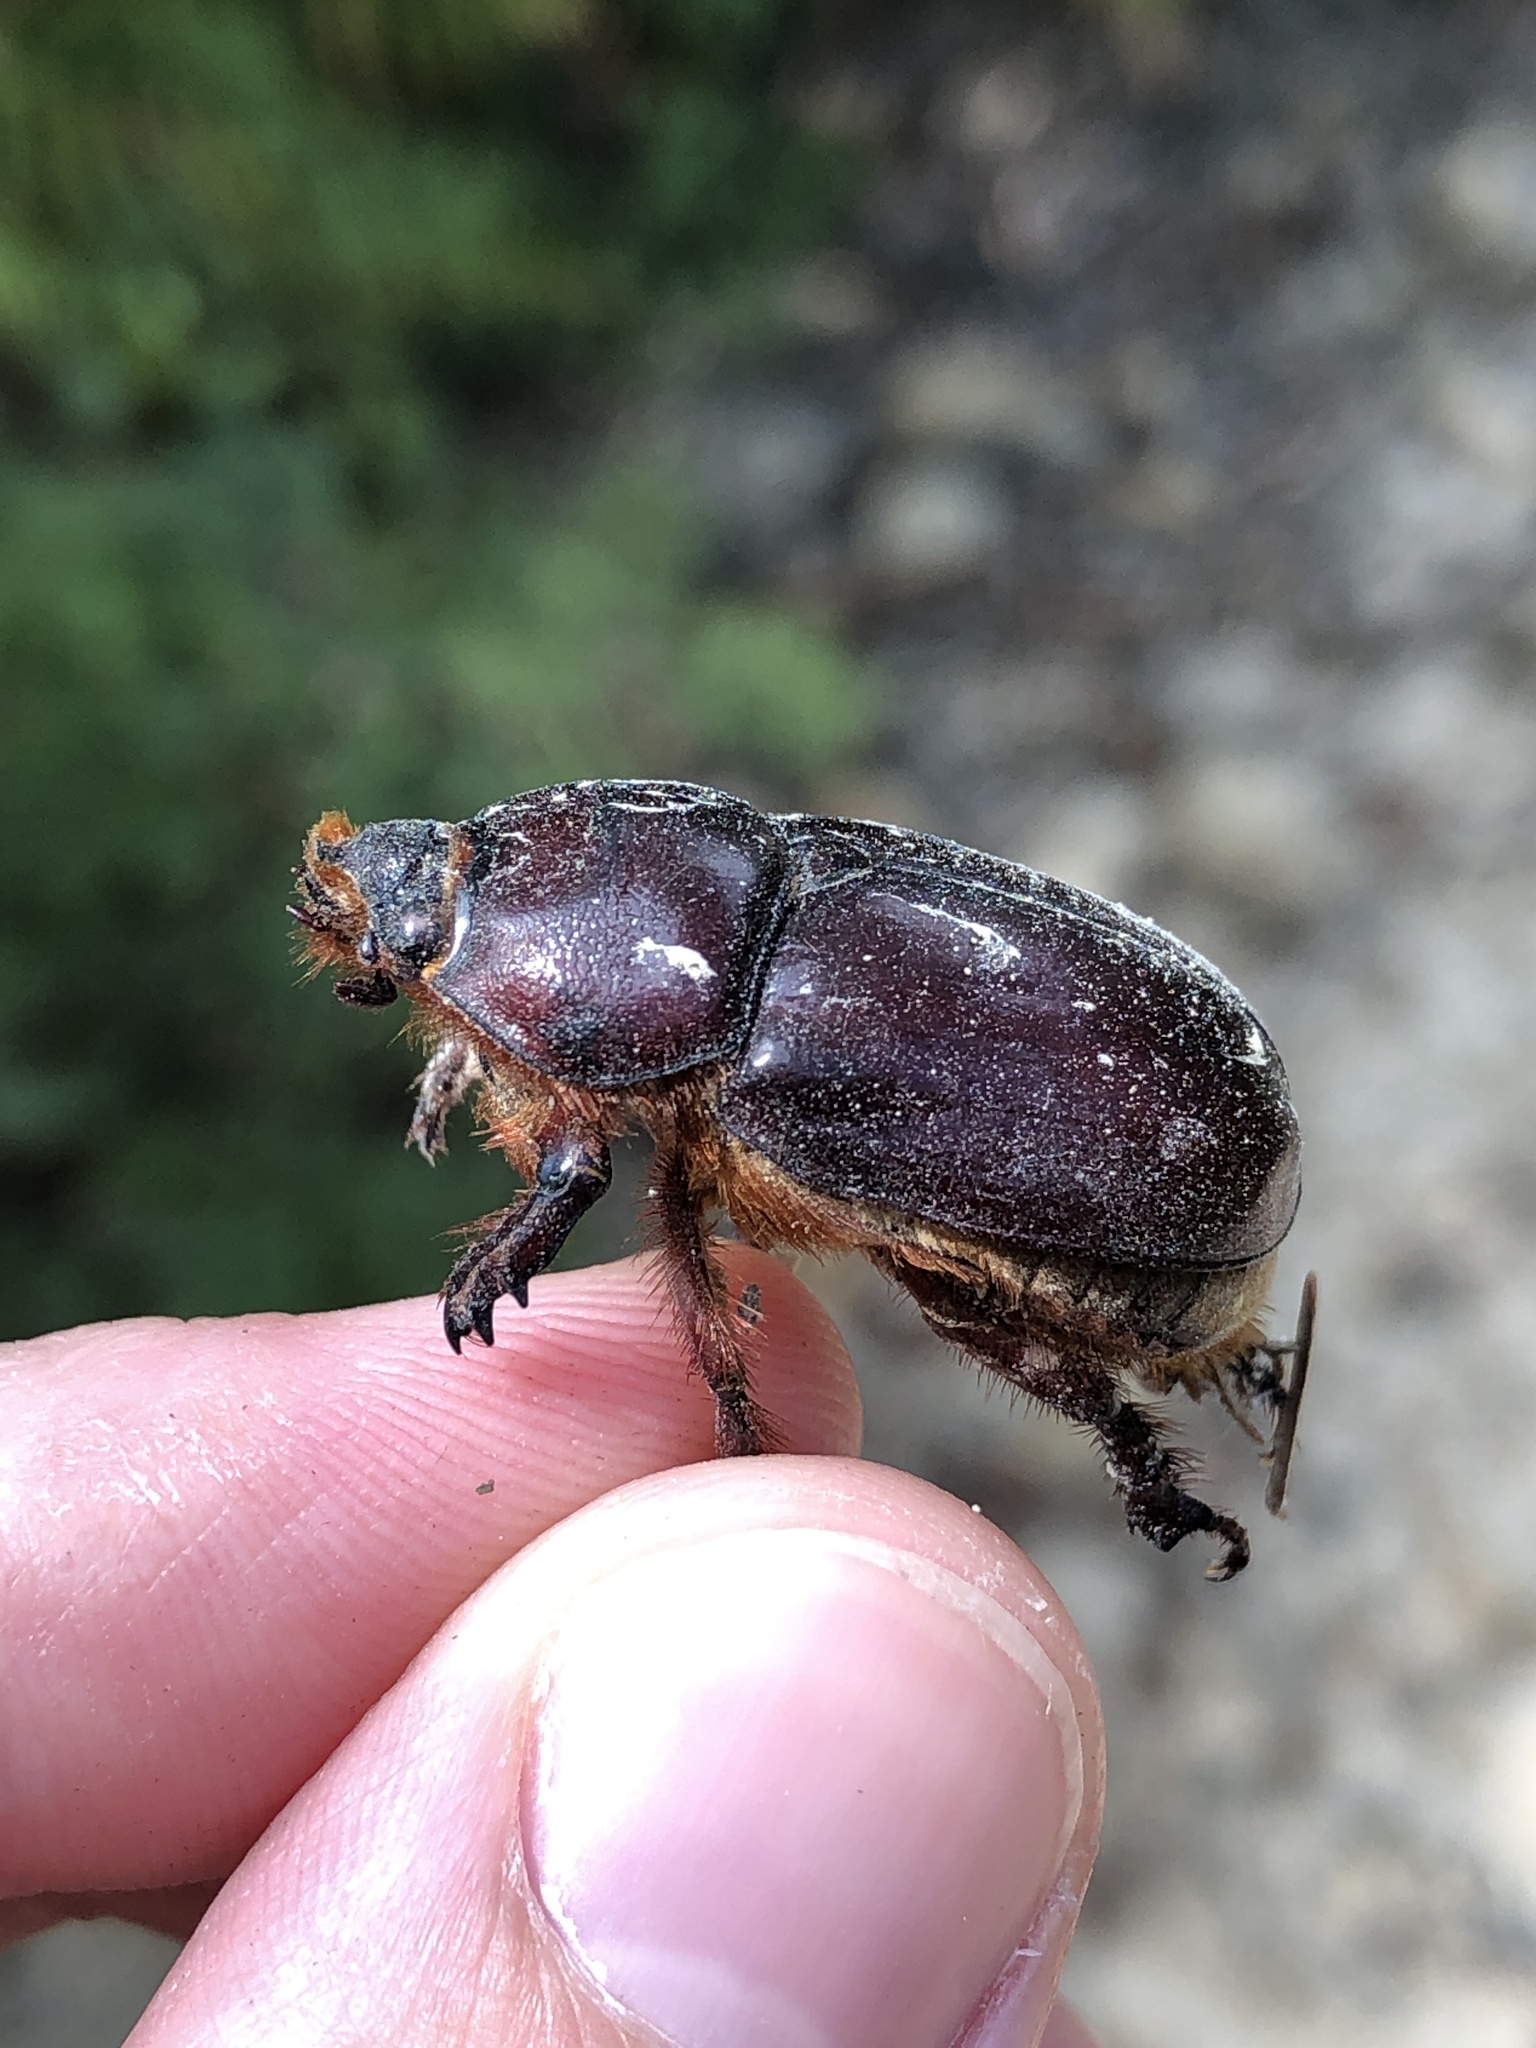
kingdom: Animalia
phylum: Arthropoda
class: Insecta
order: Coleoptera
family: Scarabaeidae
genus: Oryctes
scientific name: Oryctes nasicornis
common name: European rhinoceros beetle
